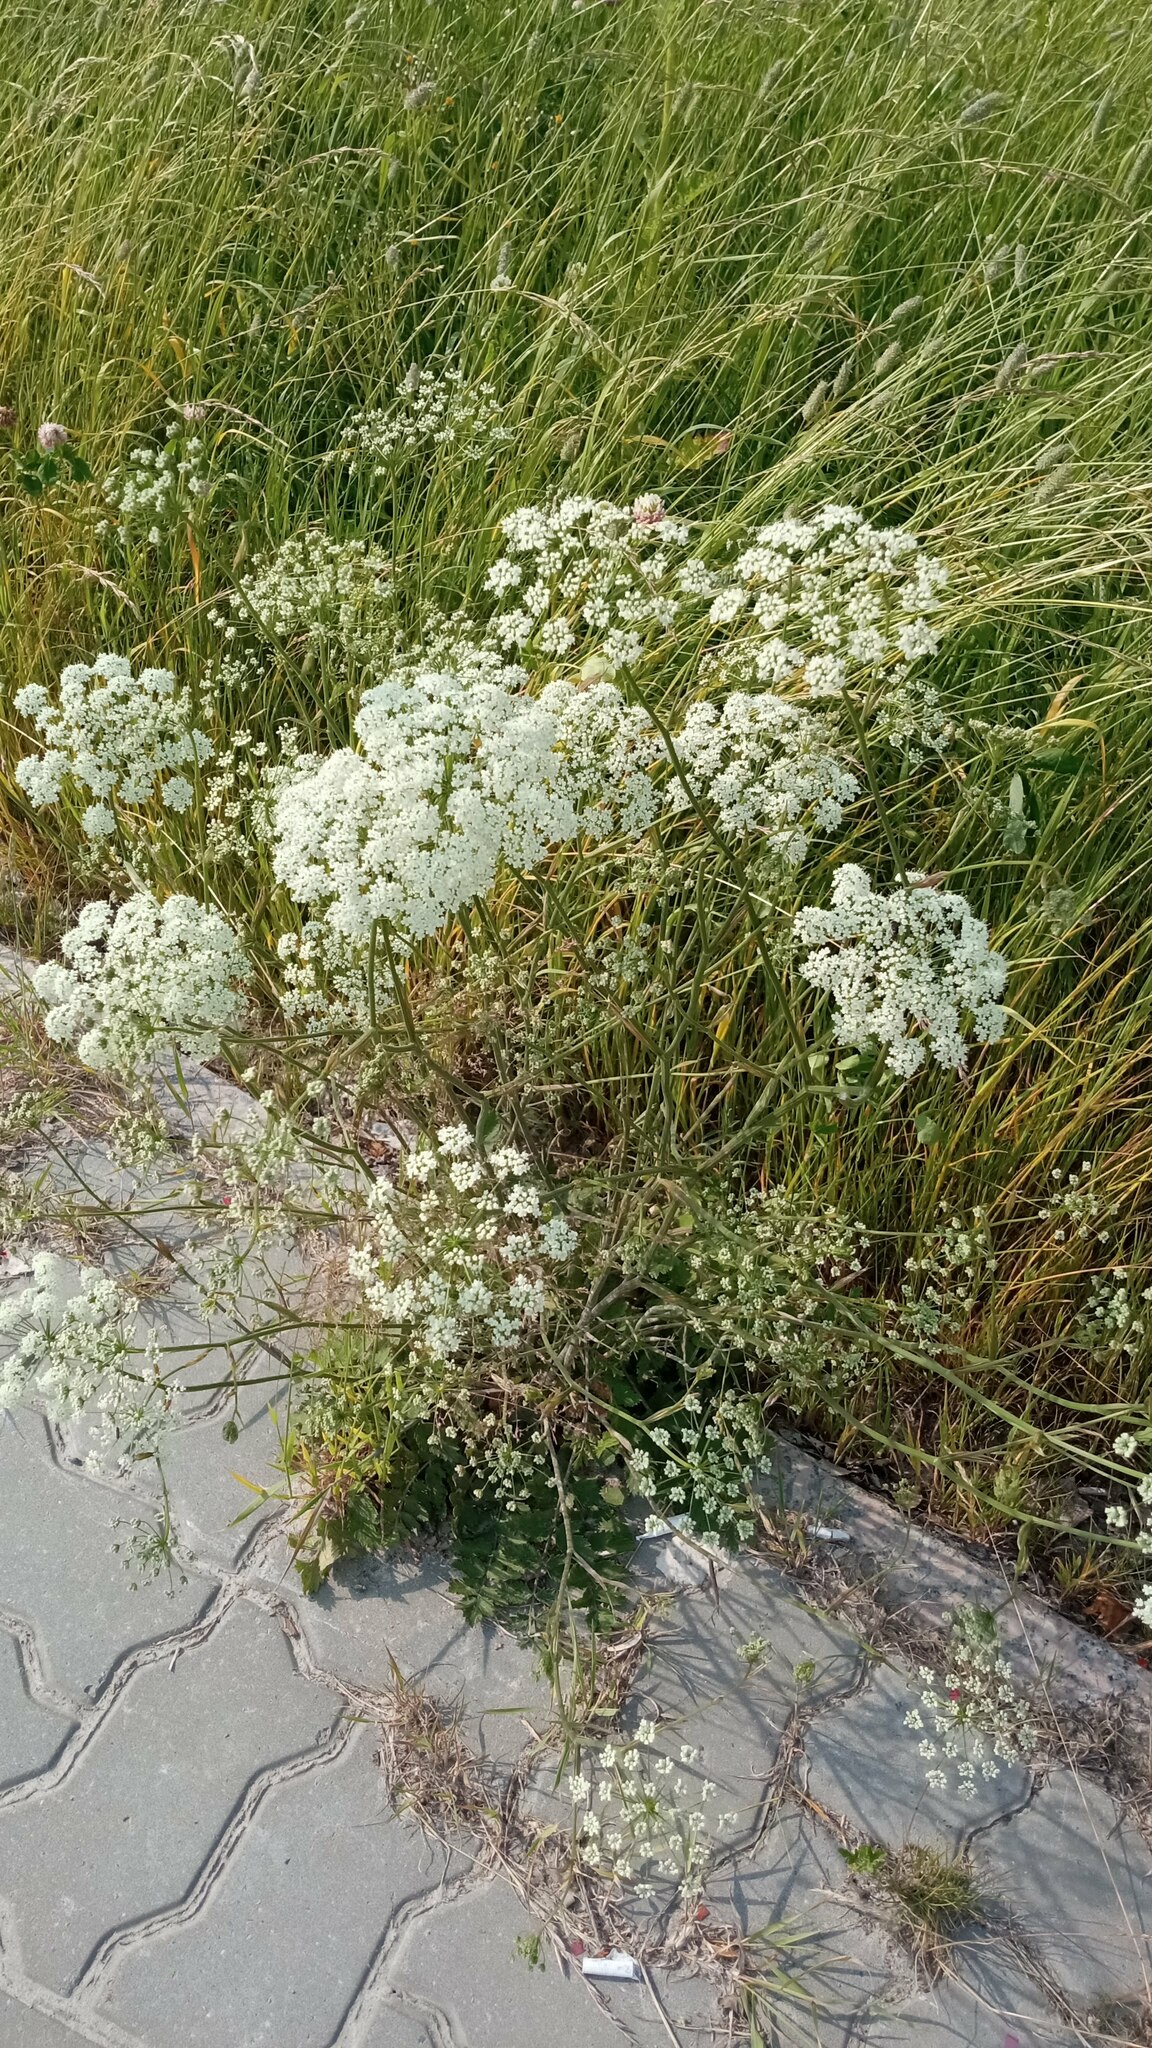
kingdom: Plantae
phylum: Tracheophyta
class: Magnoliopsida
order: Apiales
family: Apiaceae
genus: Pimpinella
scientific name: Pimpinella saxifraga
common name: Burnet-saxifrage
